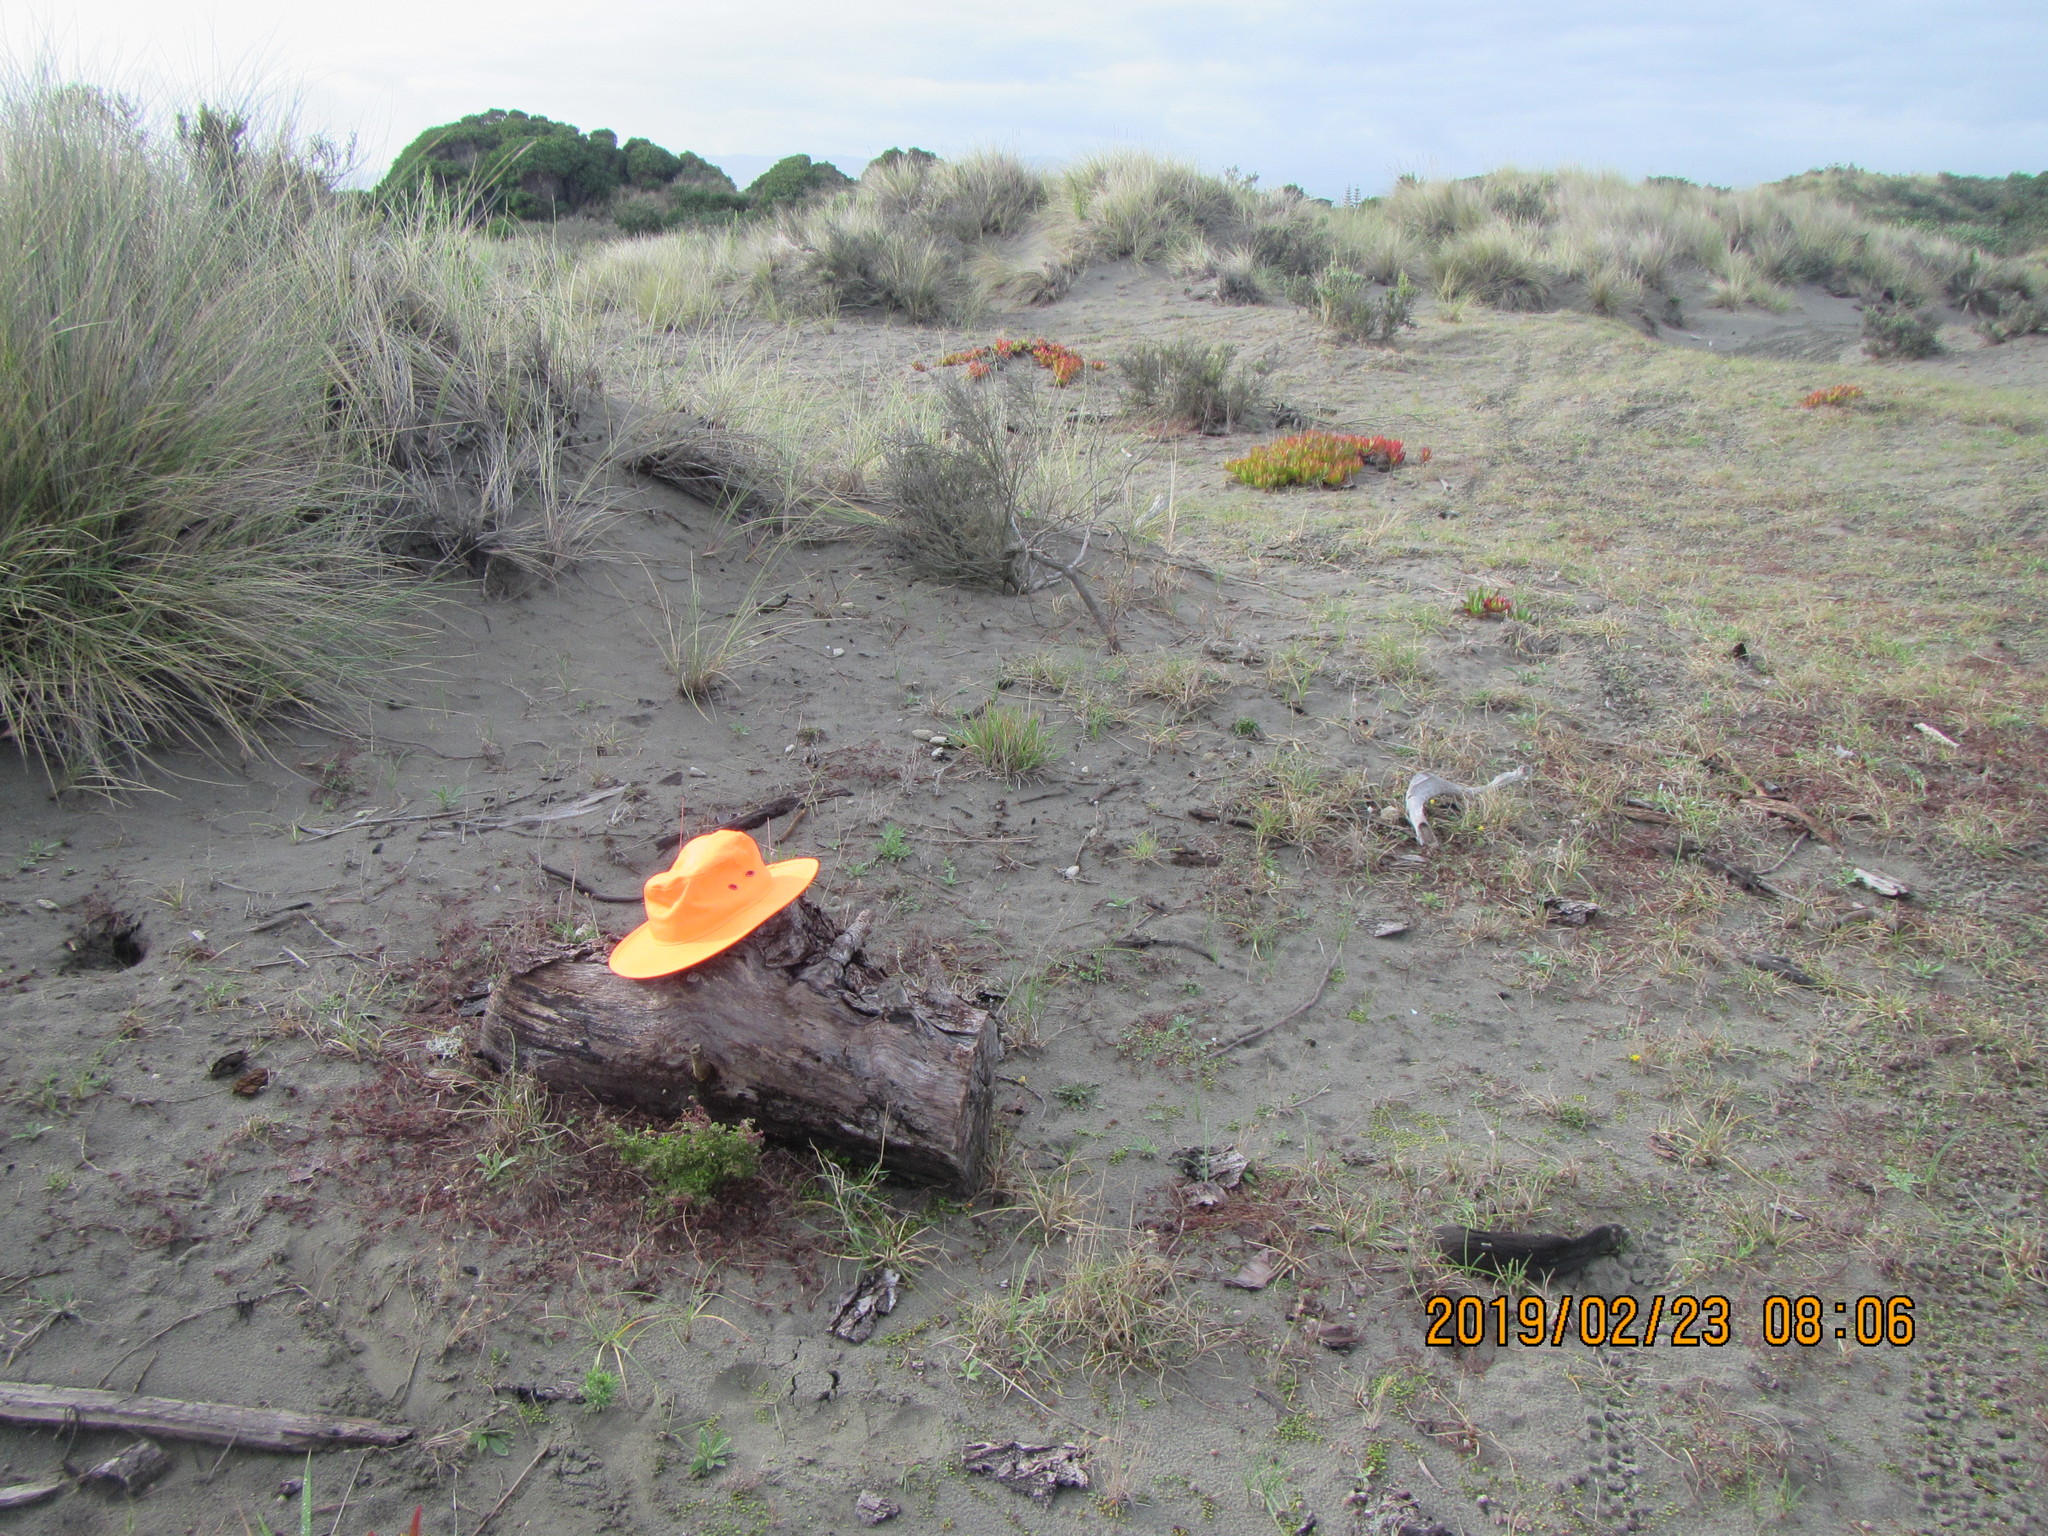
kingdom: Animalia
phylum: Arthropoda
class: Arachnida
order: Araneae
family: Porrhothelidae
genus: Porrhothele
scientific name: Porrhothele antipodiana
